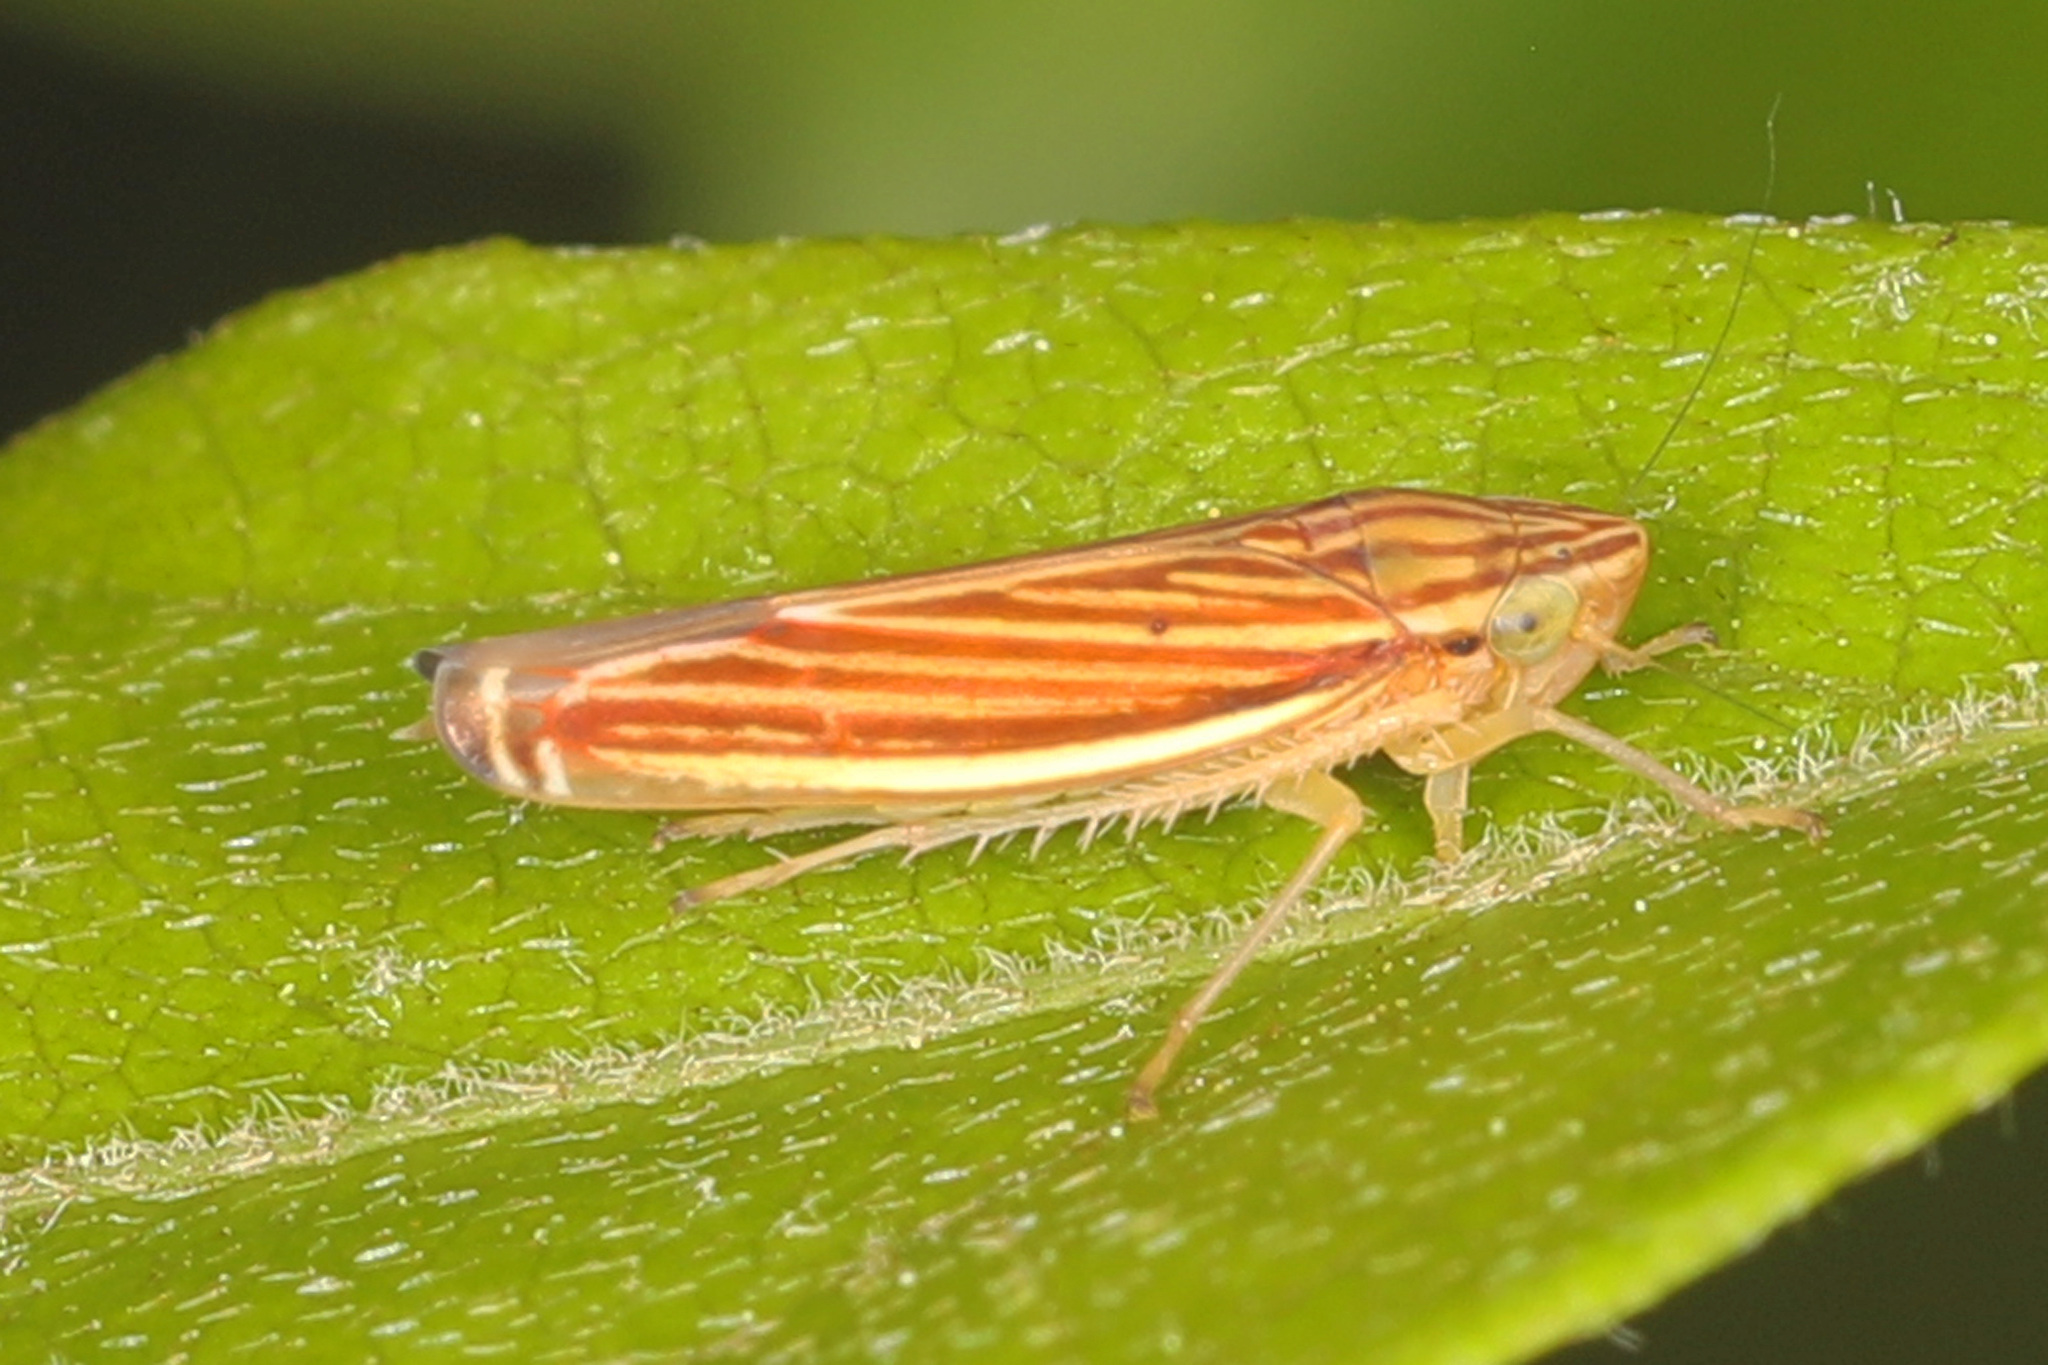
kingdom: Animalia
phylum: Arthropoda
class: Insecta
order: Hemiptera
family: Cicadellidae
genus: Sibovia
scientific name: Sibovia occatoria
